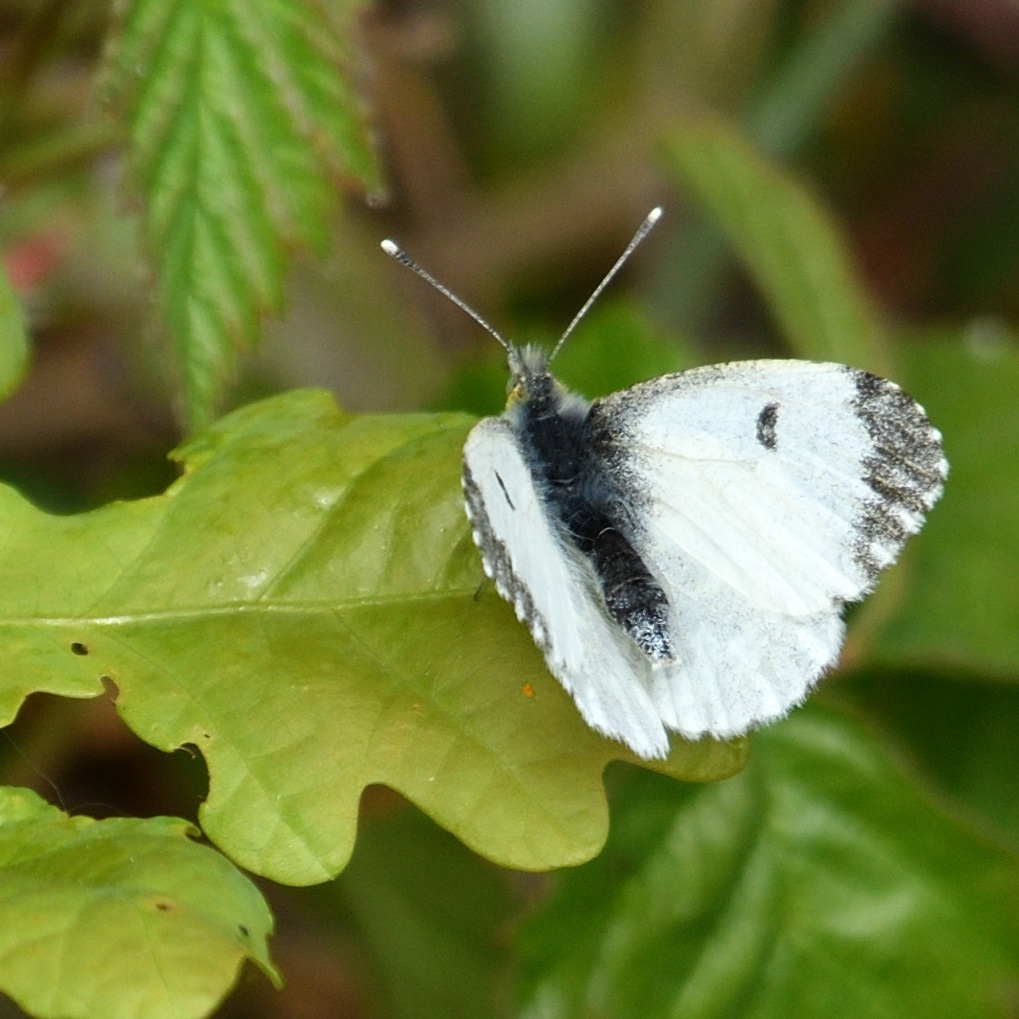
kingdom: Animalia
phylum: Arthropoda
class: Insecta
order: Lepidoptera
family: Pieridae
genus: Anthocharis
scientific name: Anthocharis cardamines
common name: Orange-tip
